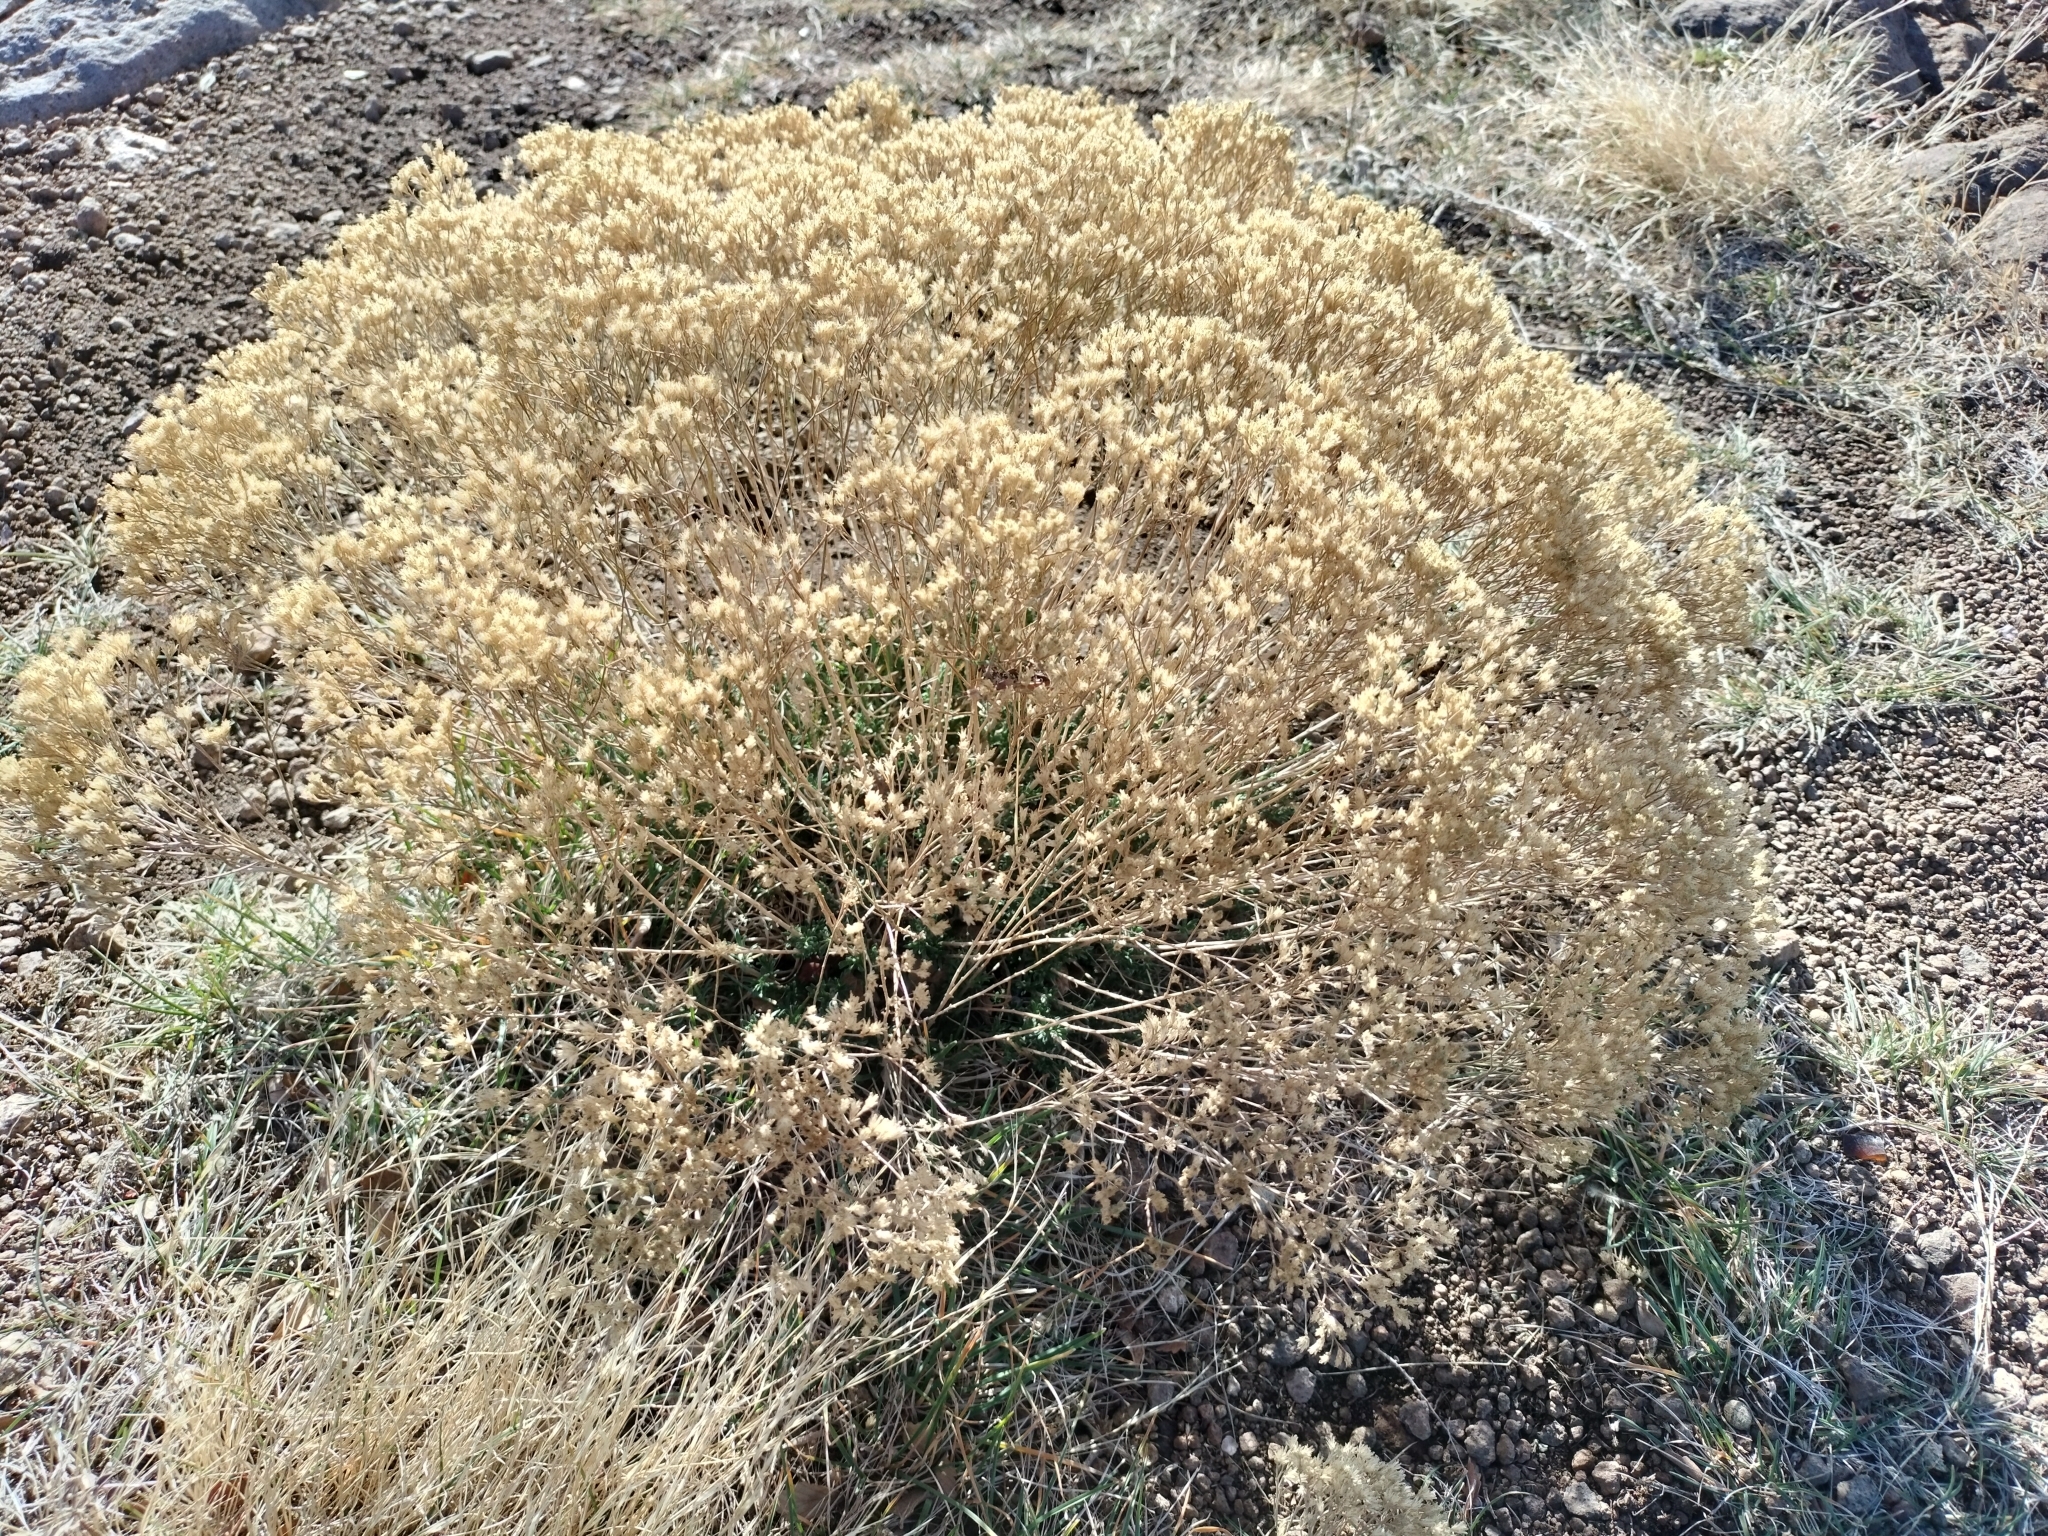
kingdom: Plantae
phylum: Tracheophyta
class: Magnoliopsida
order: Asterales
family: Asteraceae
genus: Gutierrezia
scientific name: Gutierrezia sarothrae
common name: Broom snakeweed
